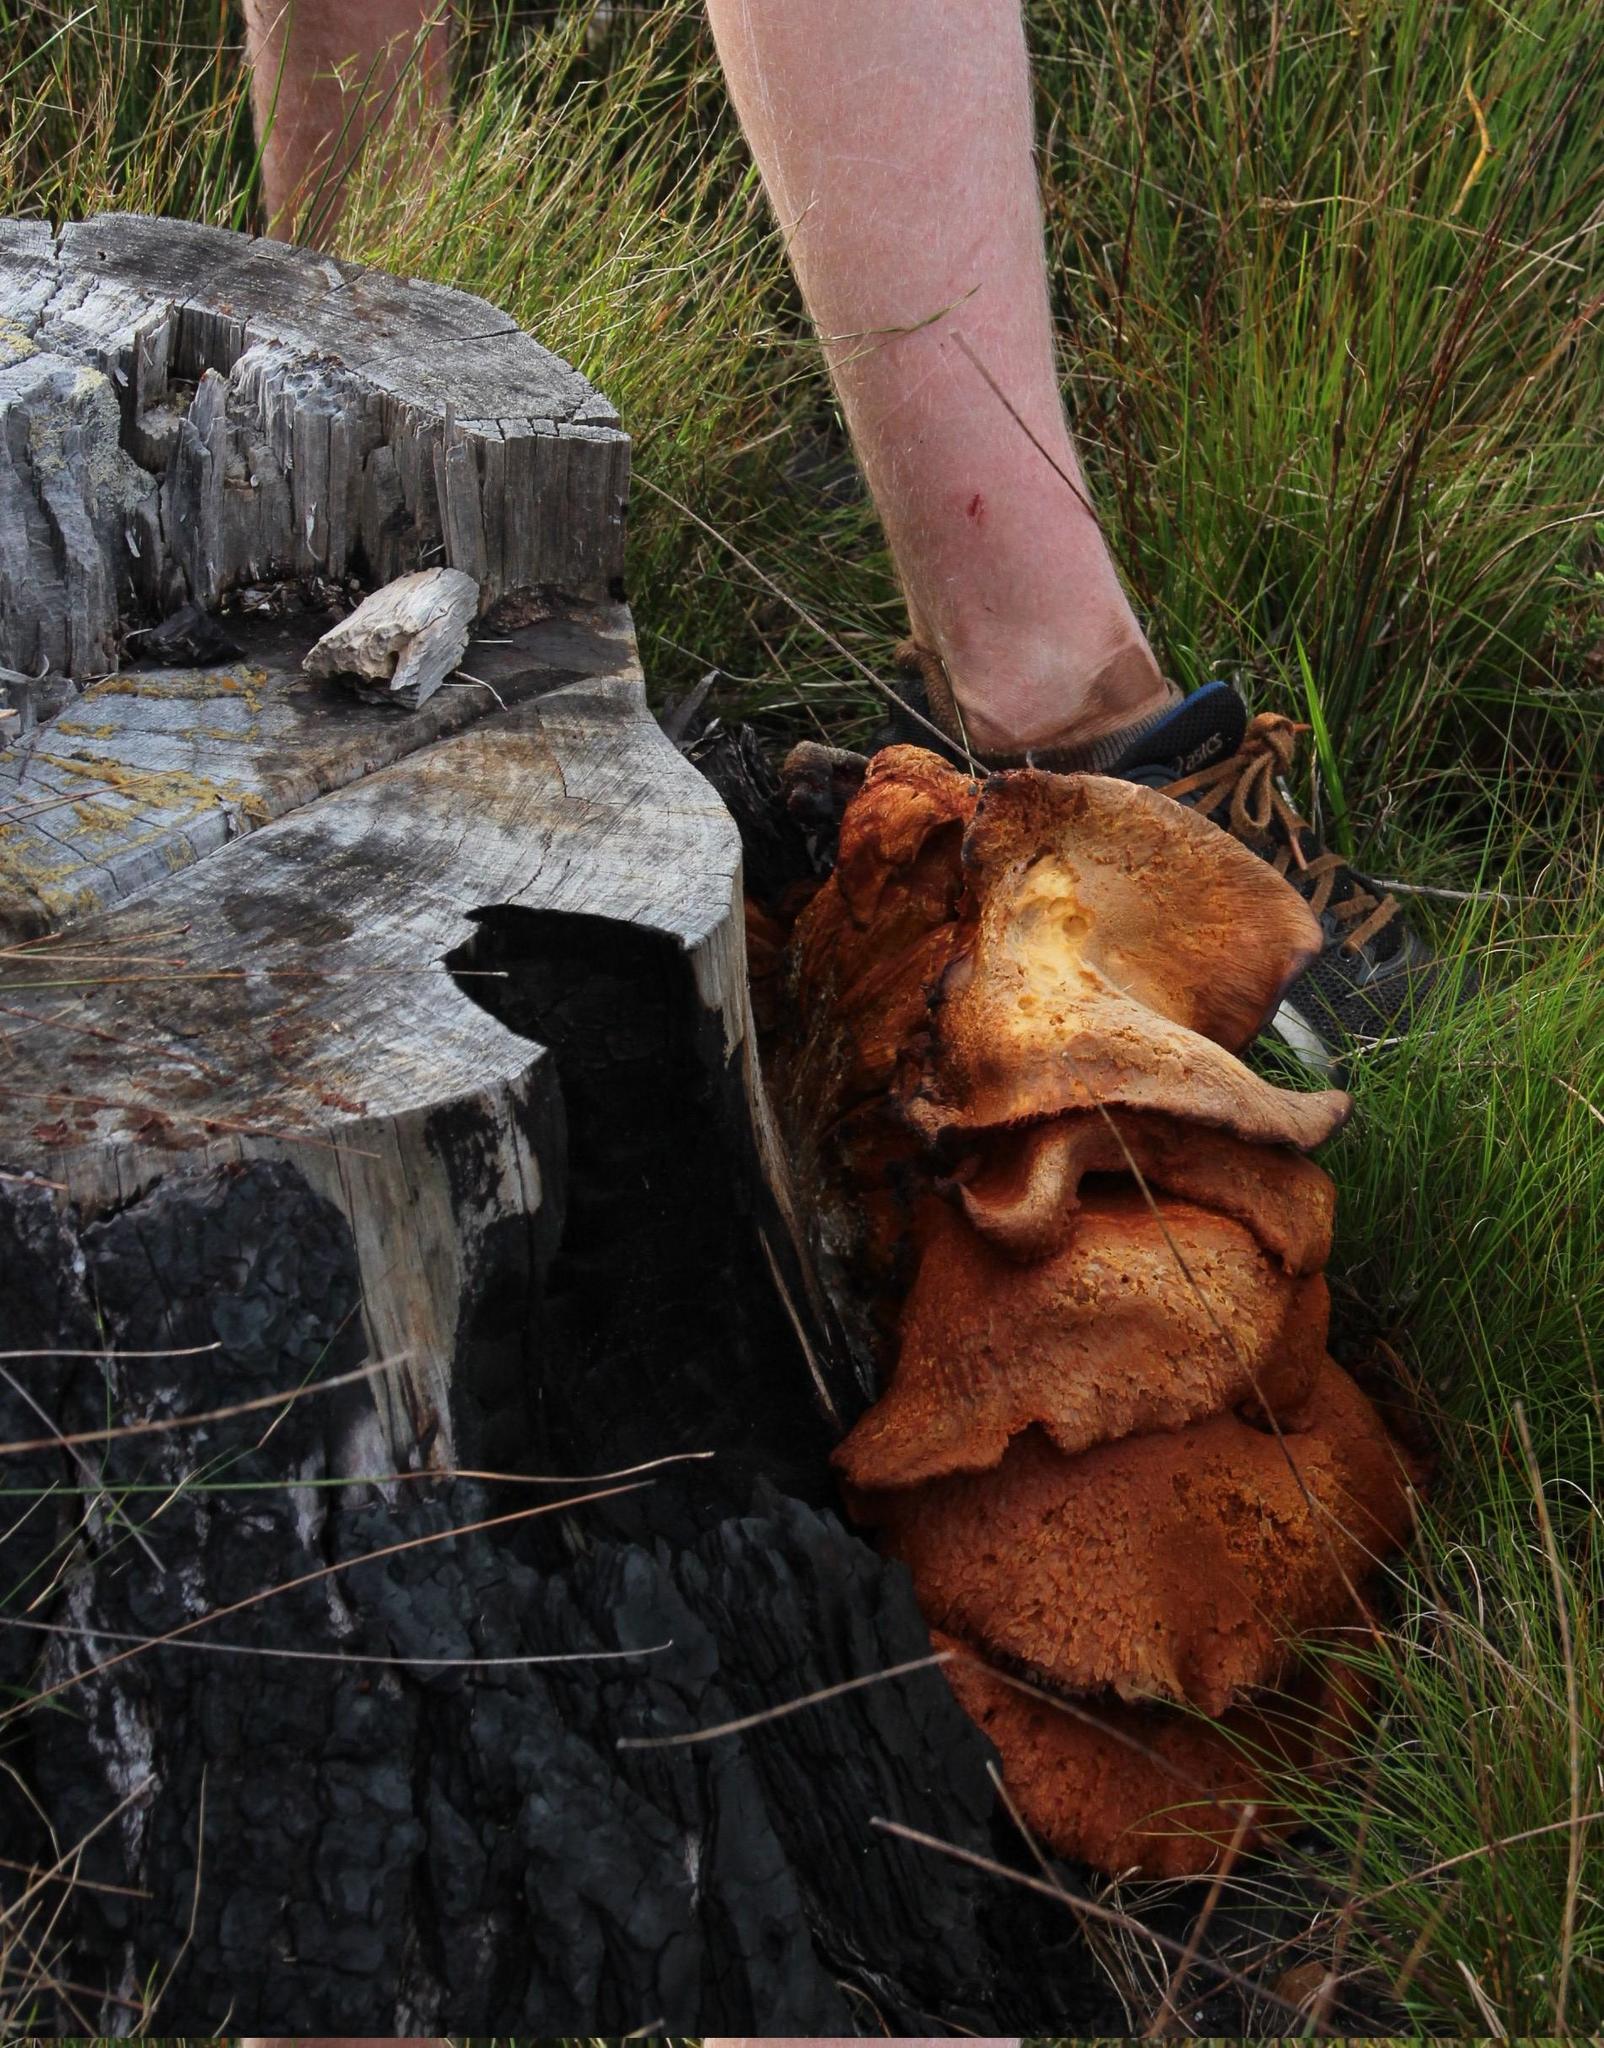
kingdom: Fungi
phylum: Basidiomycota
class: Agaricomycetes
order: Agaricales
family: Hymenogastraceae
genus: Gymnopilus
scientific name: Gymnopilus junonius
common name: Spectacular rustgill
